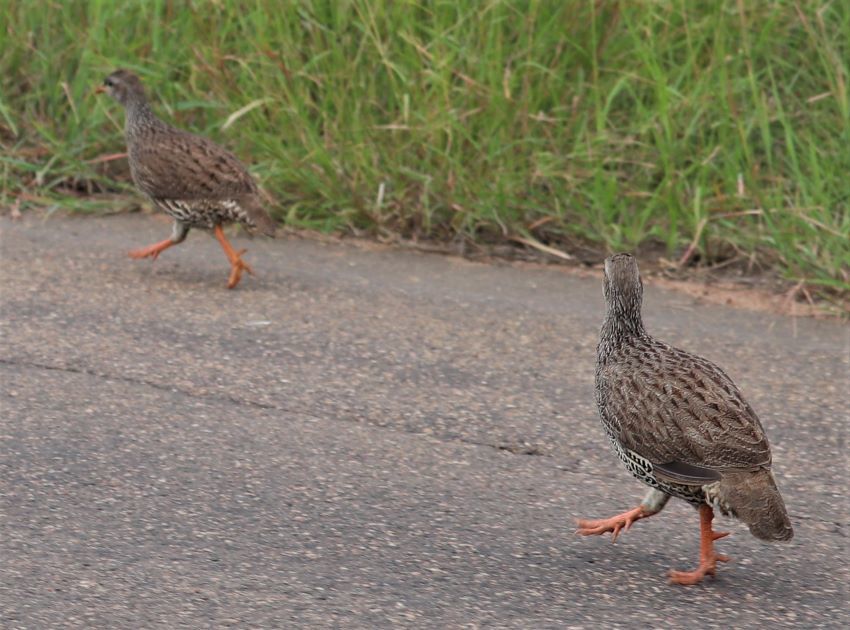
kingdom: Animalia
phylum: Chordata
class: Aves
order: Galliformes
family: Phasianidae
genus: Pternistis
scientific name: Pternistis natalensis
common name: Natal spurfowl
